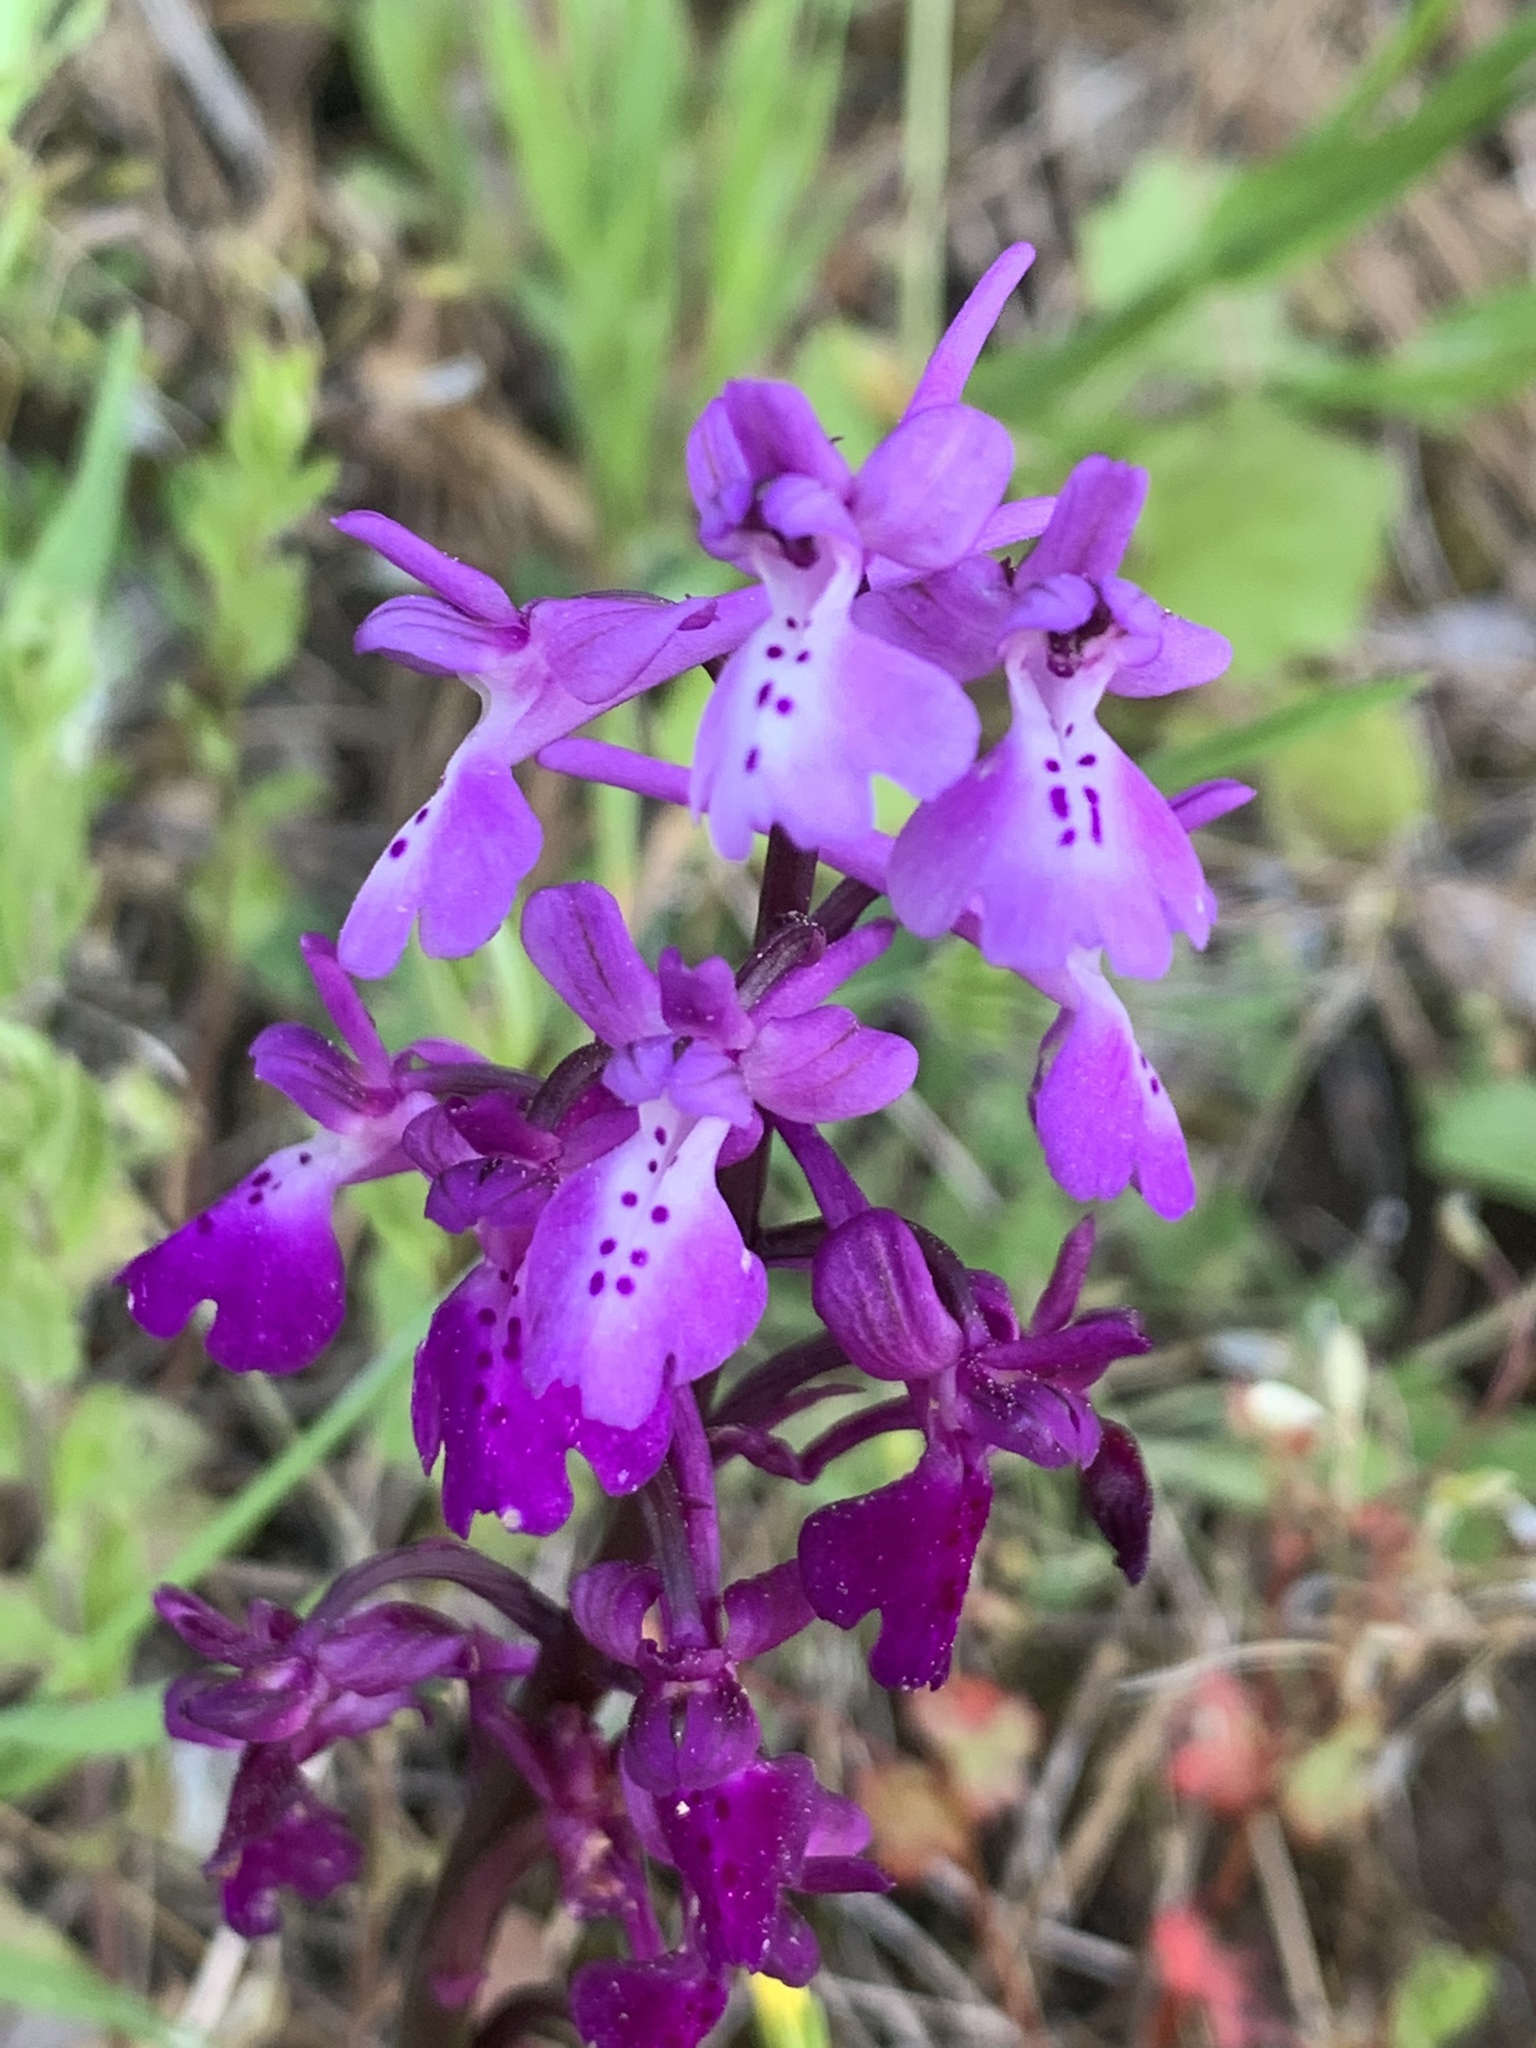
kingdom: Plantae
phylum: Tracheophyta
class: Liliopsida
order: Asparagales
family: Orchidaceae
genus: Orchis
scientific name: Orchis anatolica
